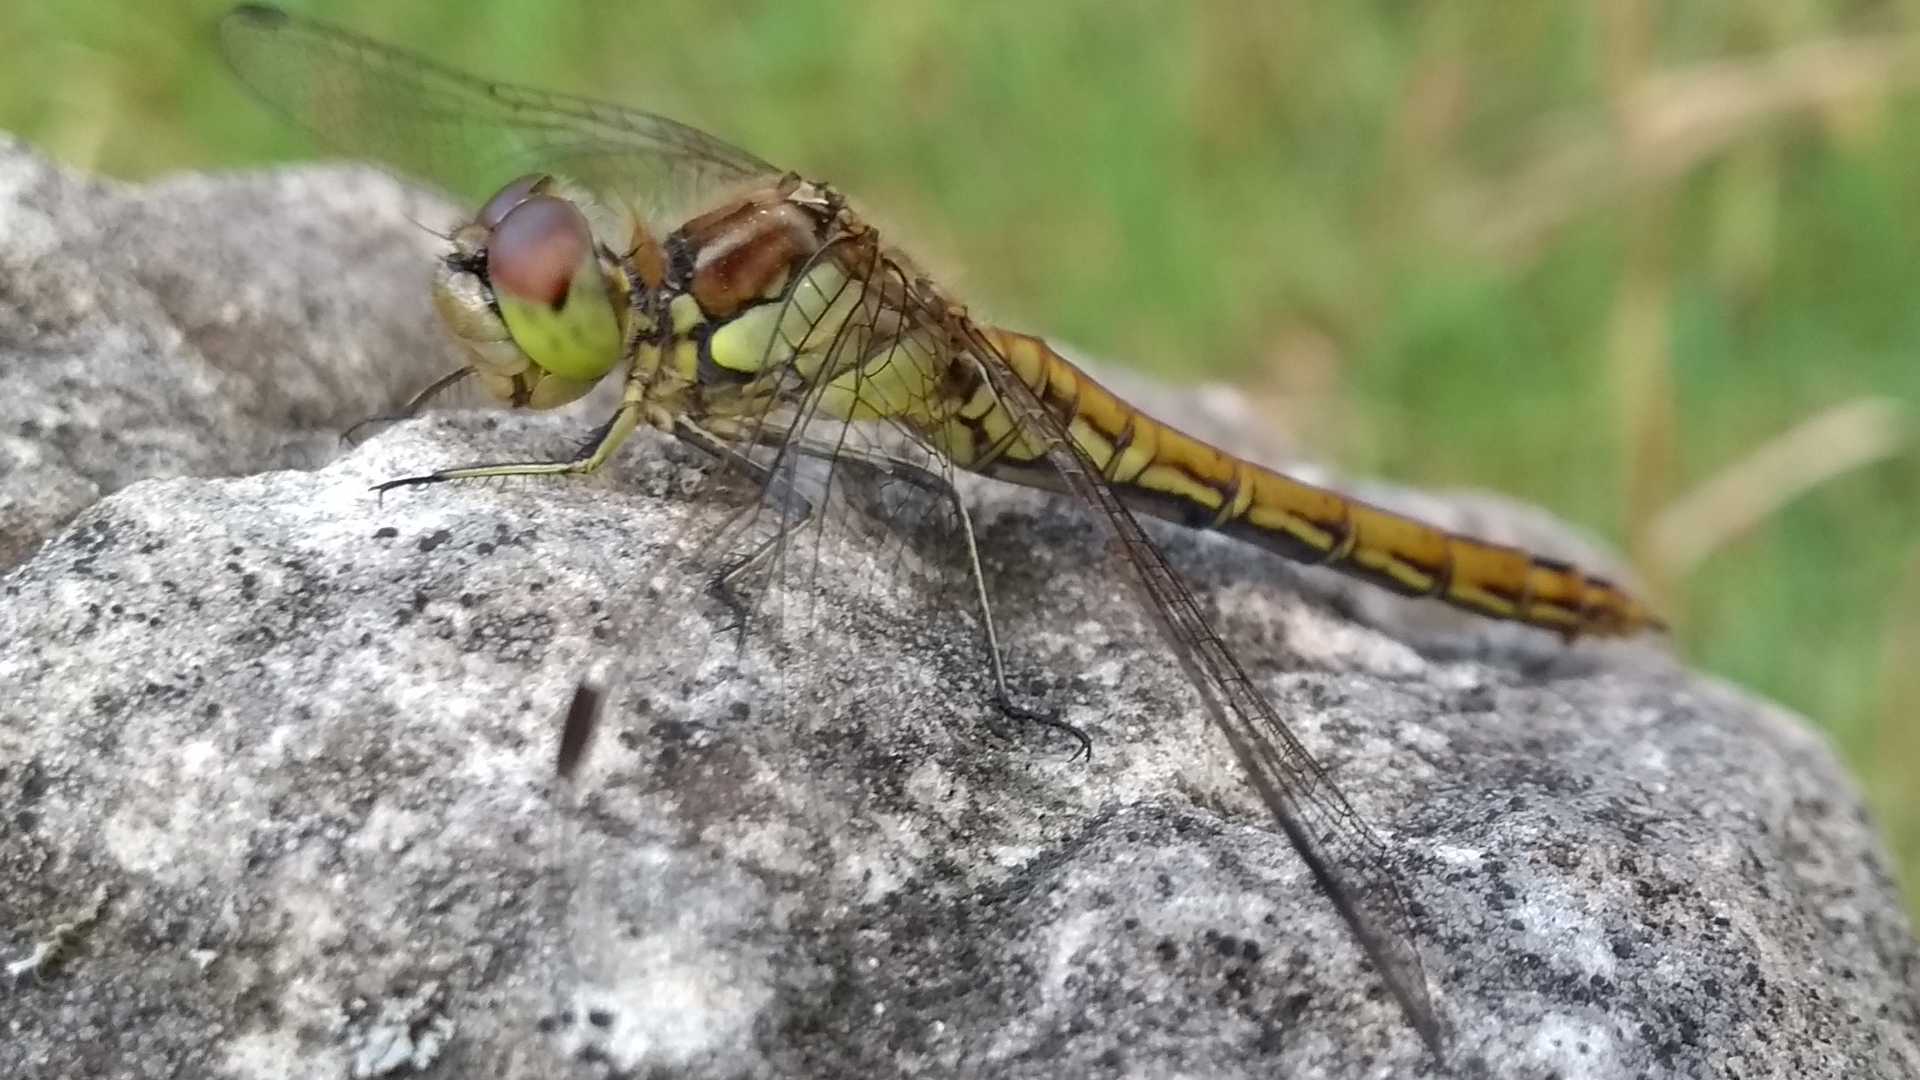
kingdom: Animalia
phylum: Arthropoda
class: Insecta
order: Odonata
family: Libellulidae
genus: Sympetrum
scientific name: Sympetrum vulgatum
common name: Vagrant darter
